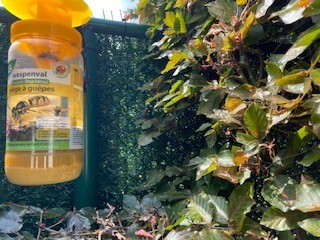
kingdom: Animalia
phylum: Arthropoda
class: Insecta
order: Hymenoptera
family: Vespidae
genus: Vespa
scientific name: Vespa crabro
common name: Hornet
